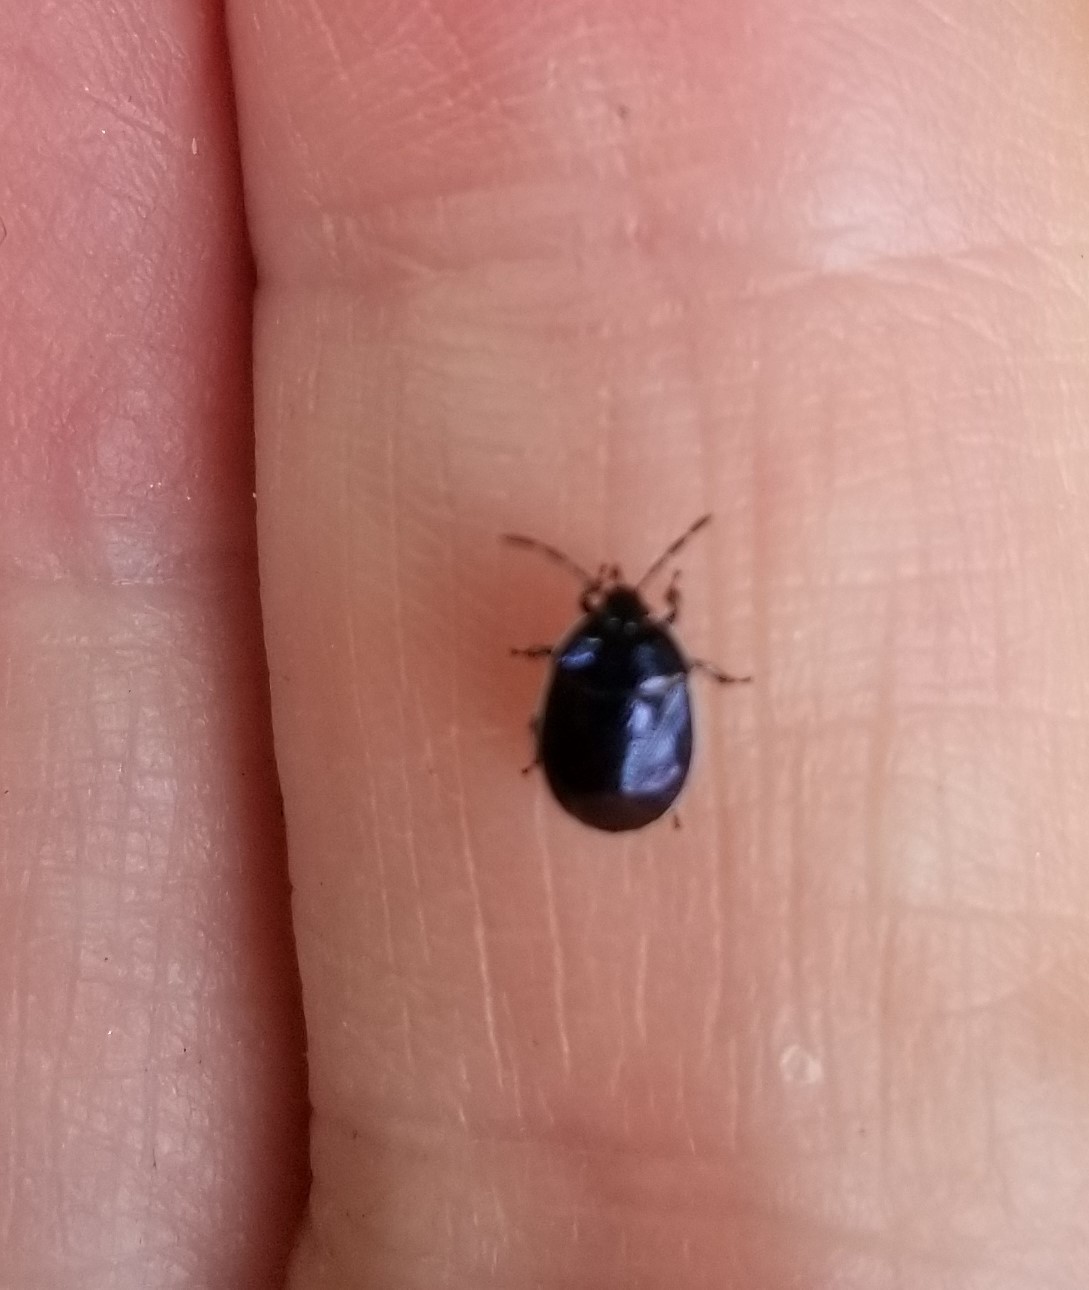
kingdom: Animalia
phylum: Arthropoda
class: Insecta
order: Hemiptera
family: Cydnidae
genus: Sehirus
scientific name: Sehirus cinctus
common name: White-margined burrower bug
